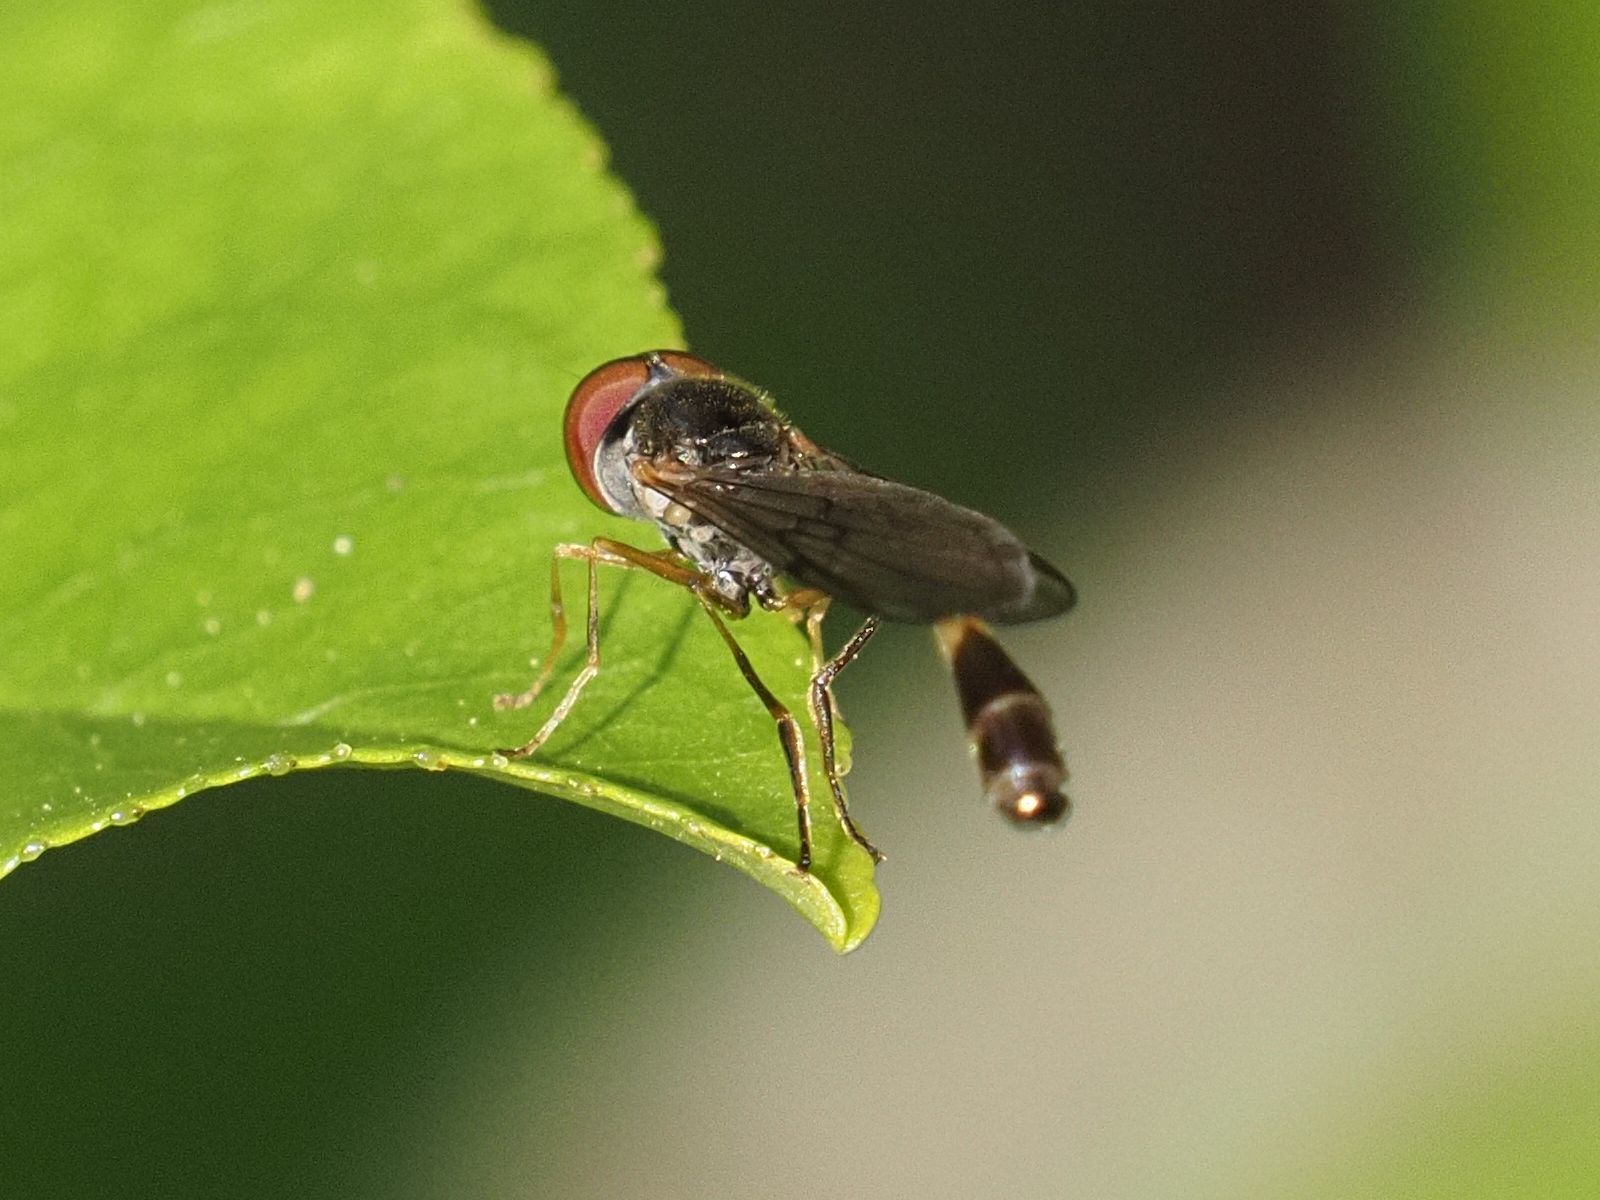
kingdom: Animalia
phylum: Arthropoda
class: Insecta
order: Diptera
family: Syrphidae
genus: Baccha
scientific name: Baccha elongata
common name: Common dainty
